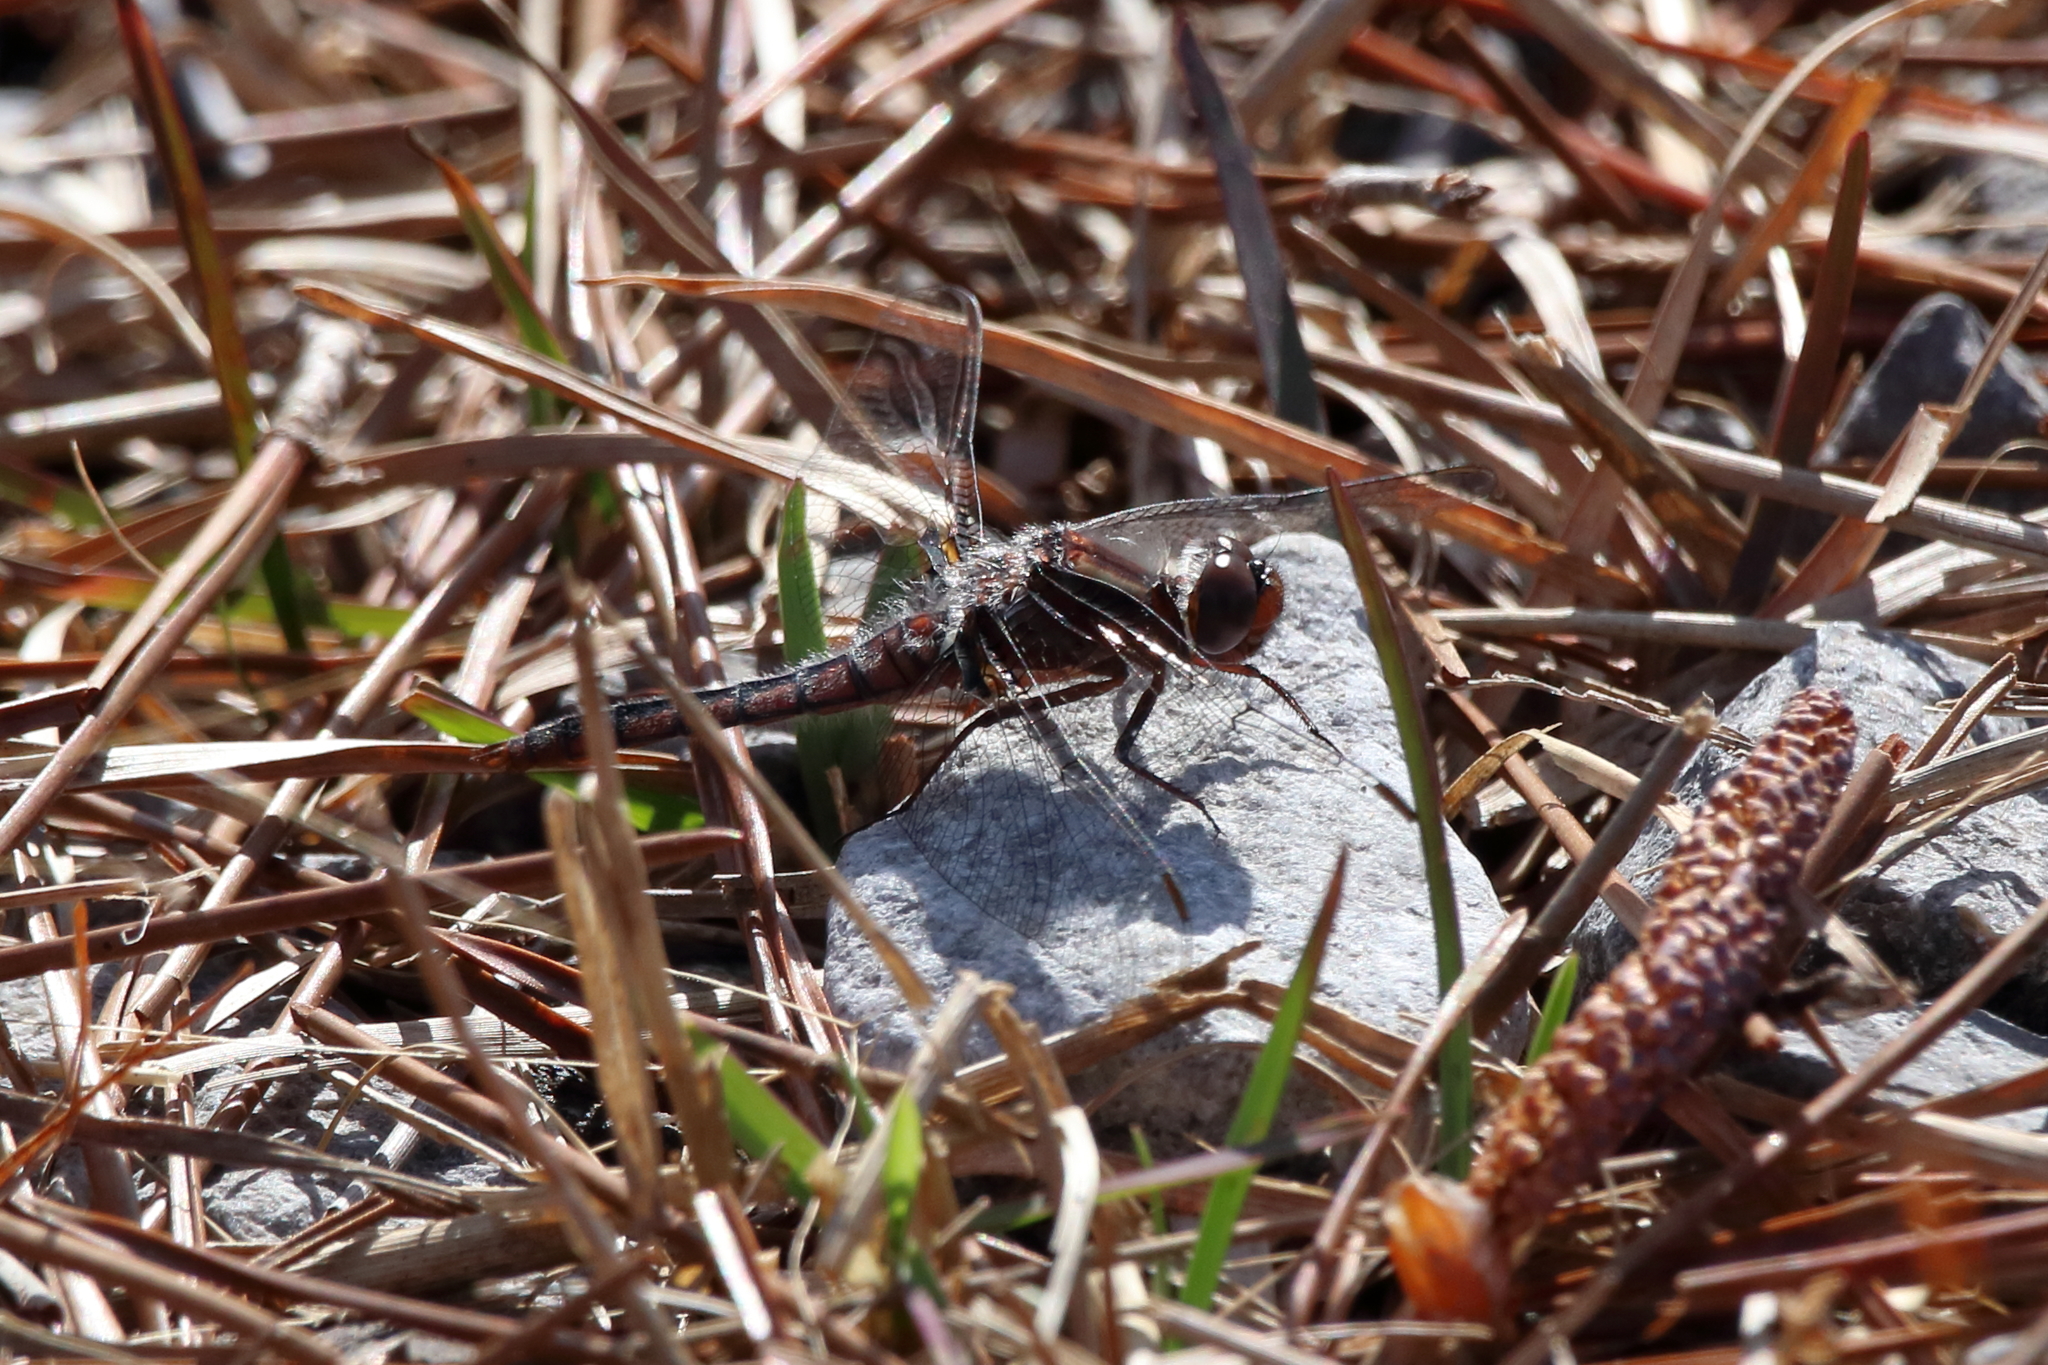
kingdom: Animalia
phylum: Arthropoda
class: Insecta
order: Odonata
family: Libellulidae
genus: Ladona
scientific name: Ladona deplanata
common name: Blue corporal
